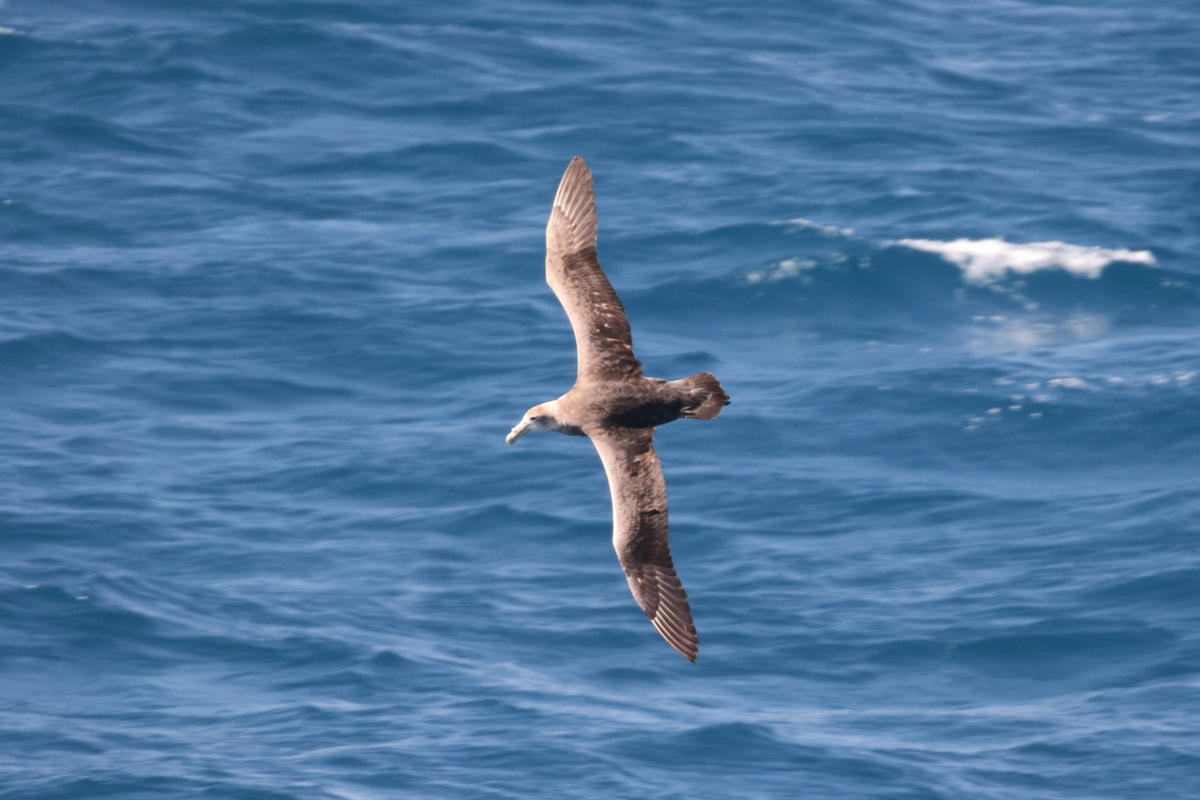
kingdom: Animalia
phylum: Chordata
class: Aves
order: Procellariiformes
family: Procellariidae
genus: Macronectes
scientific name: Macronectes giganteus
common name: Southern giant petrel
